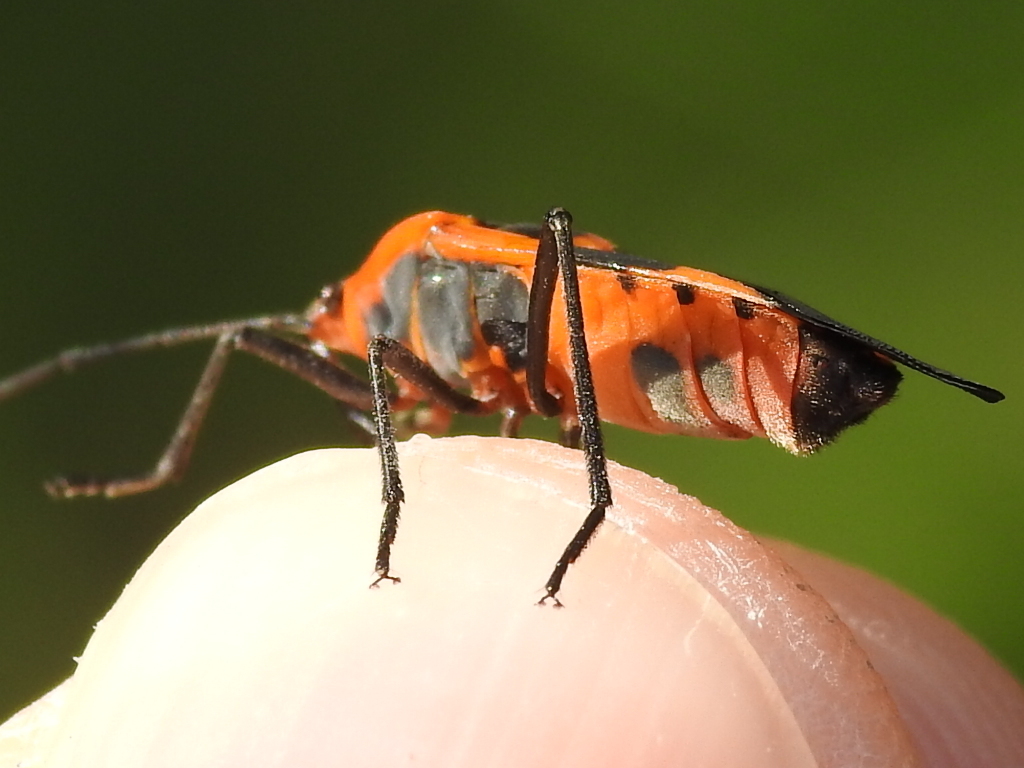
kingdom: Animalia
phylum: Arthropoda
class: Insecta
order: Hemiptera
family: Lygaeidae
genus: Oncopeltus
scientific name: Oncopeltus fasciatus
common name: Large milkweed bug
